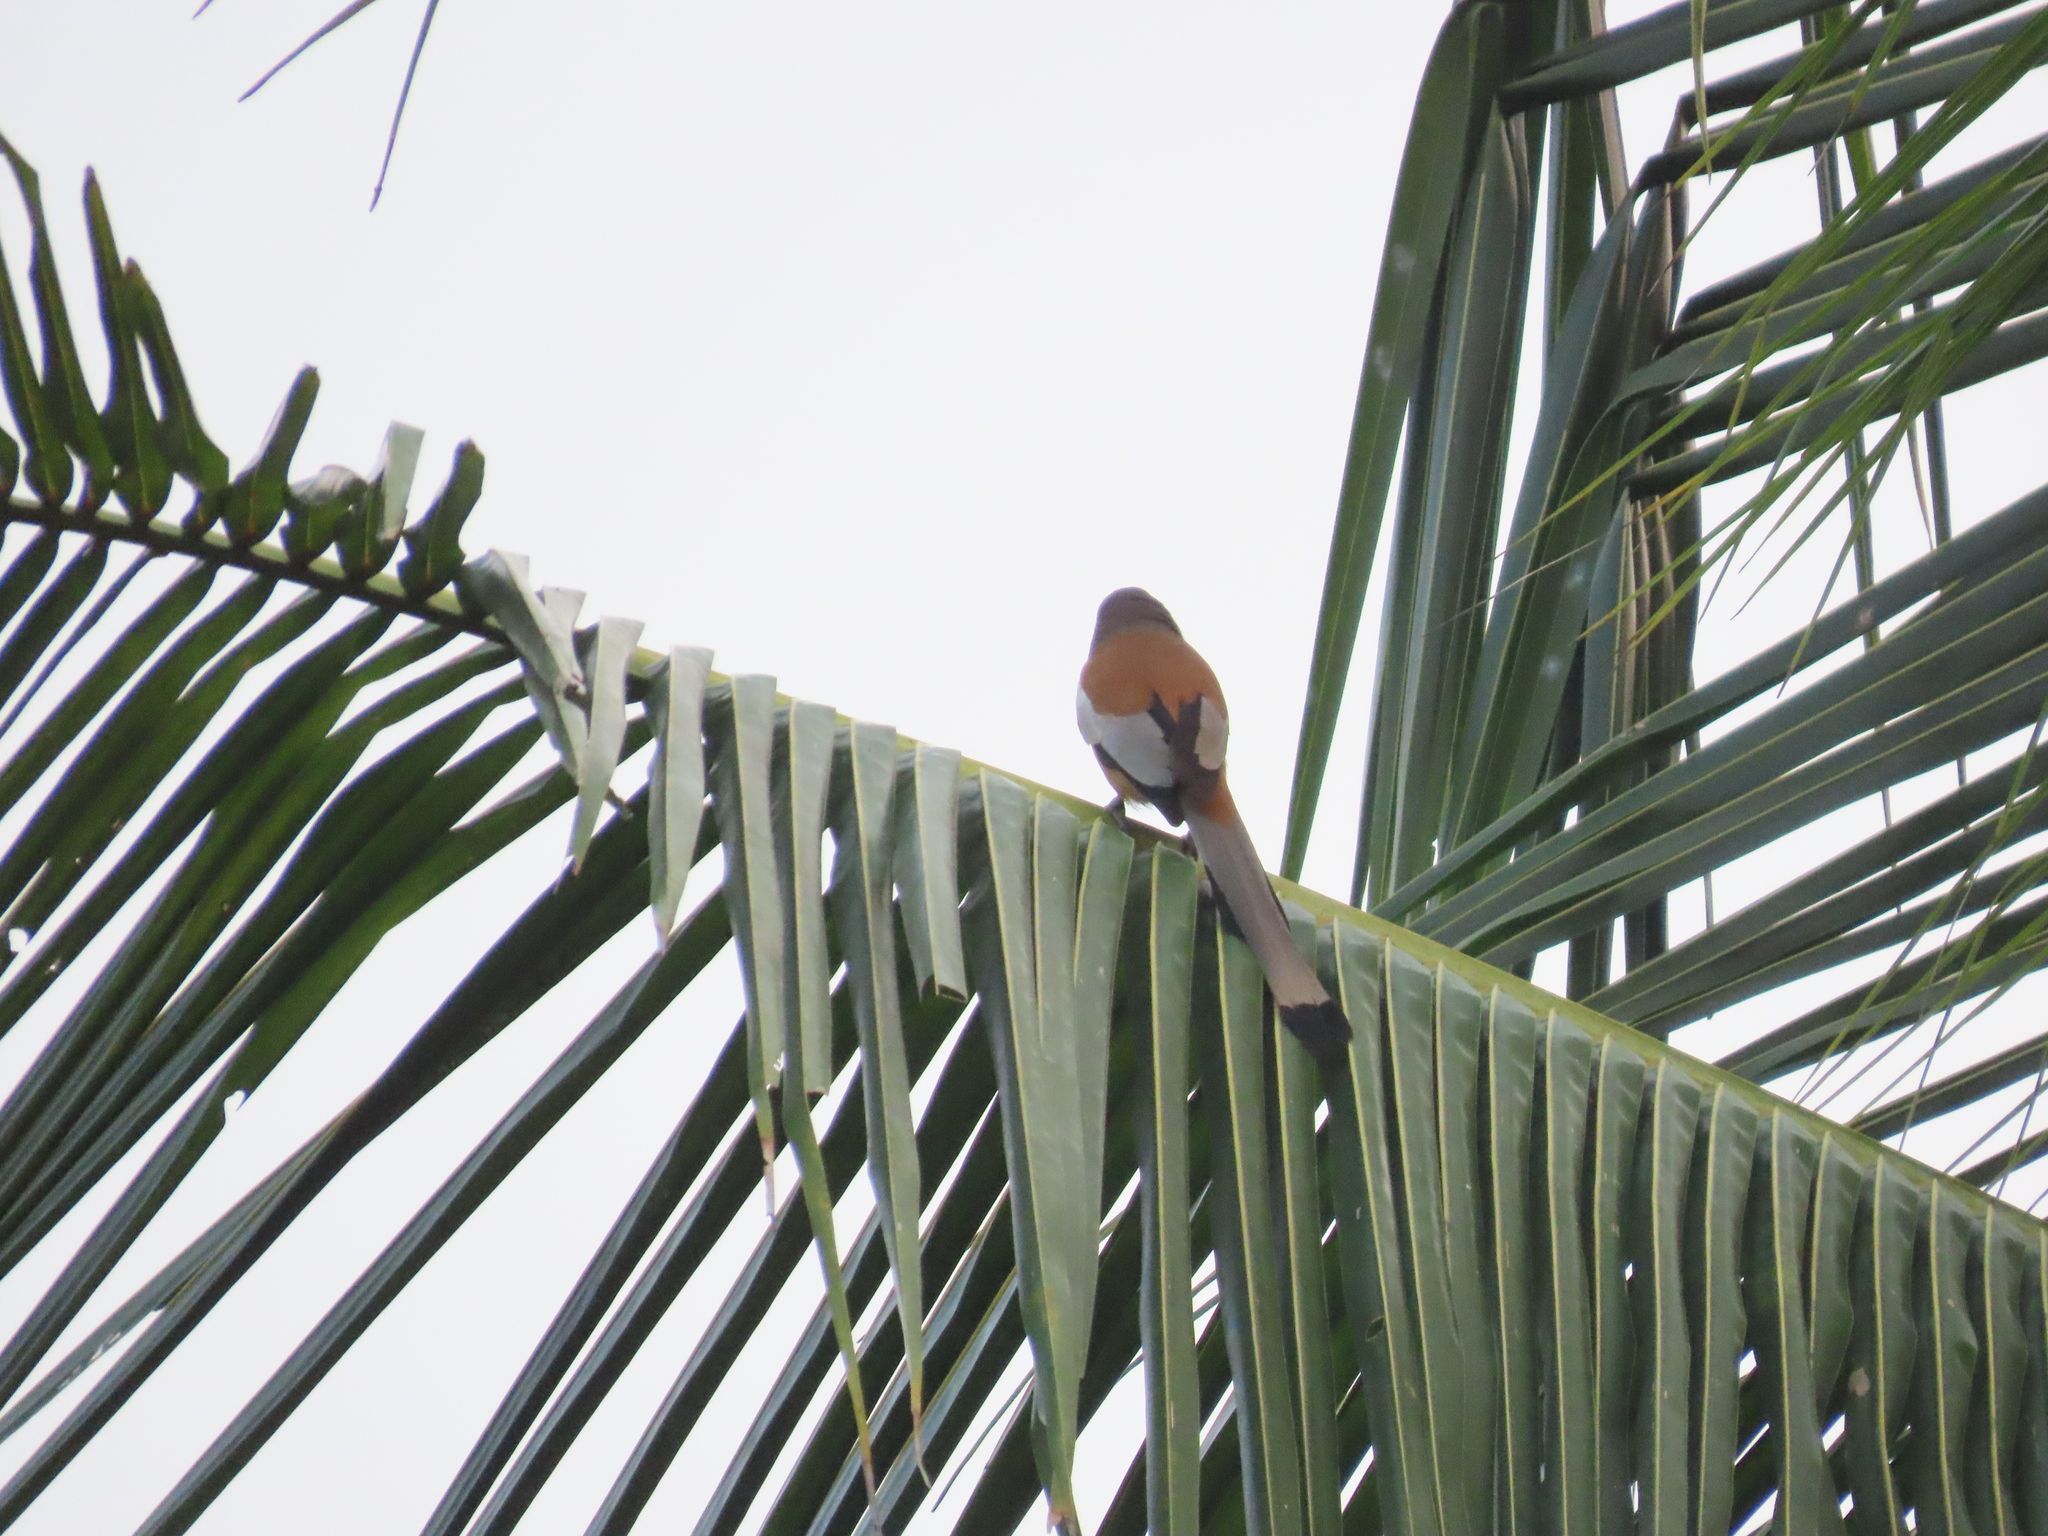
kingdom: Animalia
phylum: Chordata
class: Aves
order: Passeriformes
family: Corvidae
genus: Dendrocitta
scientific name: Dendrocitta vagabunda
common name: Rufous treepie
